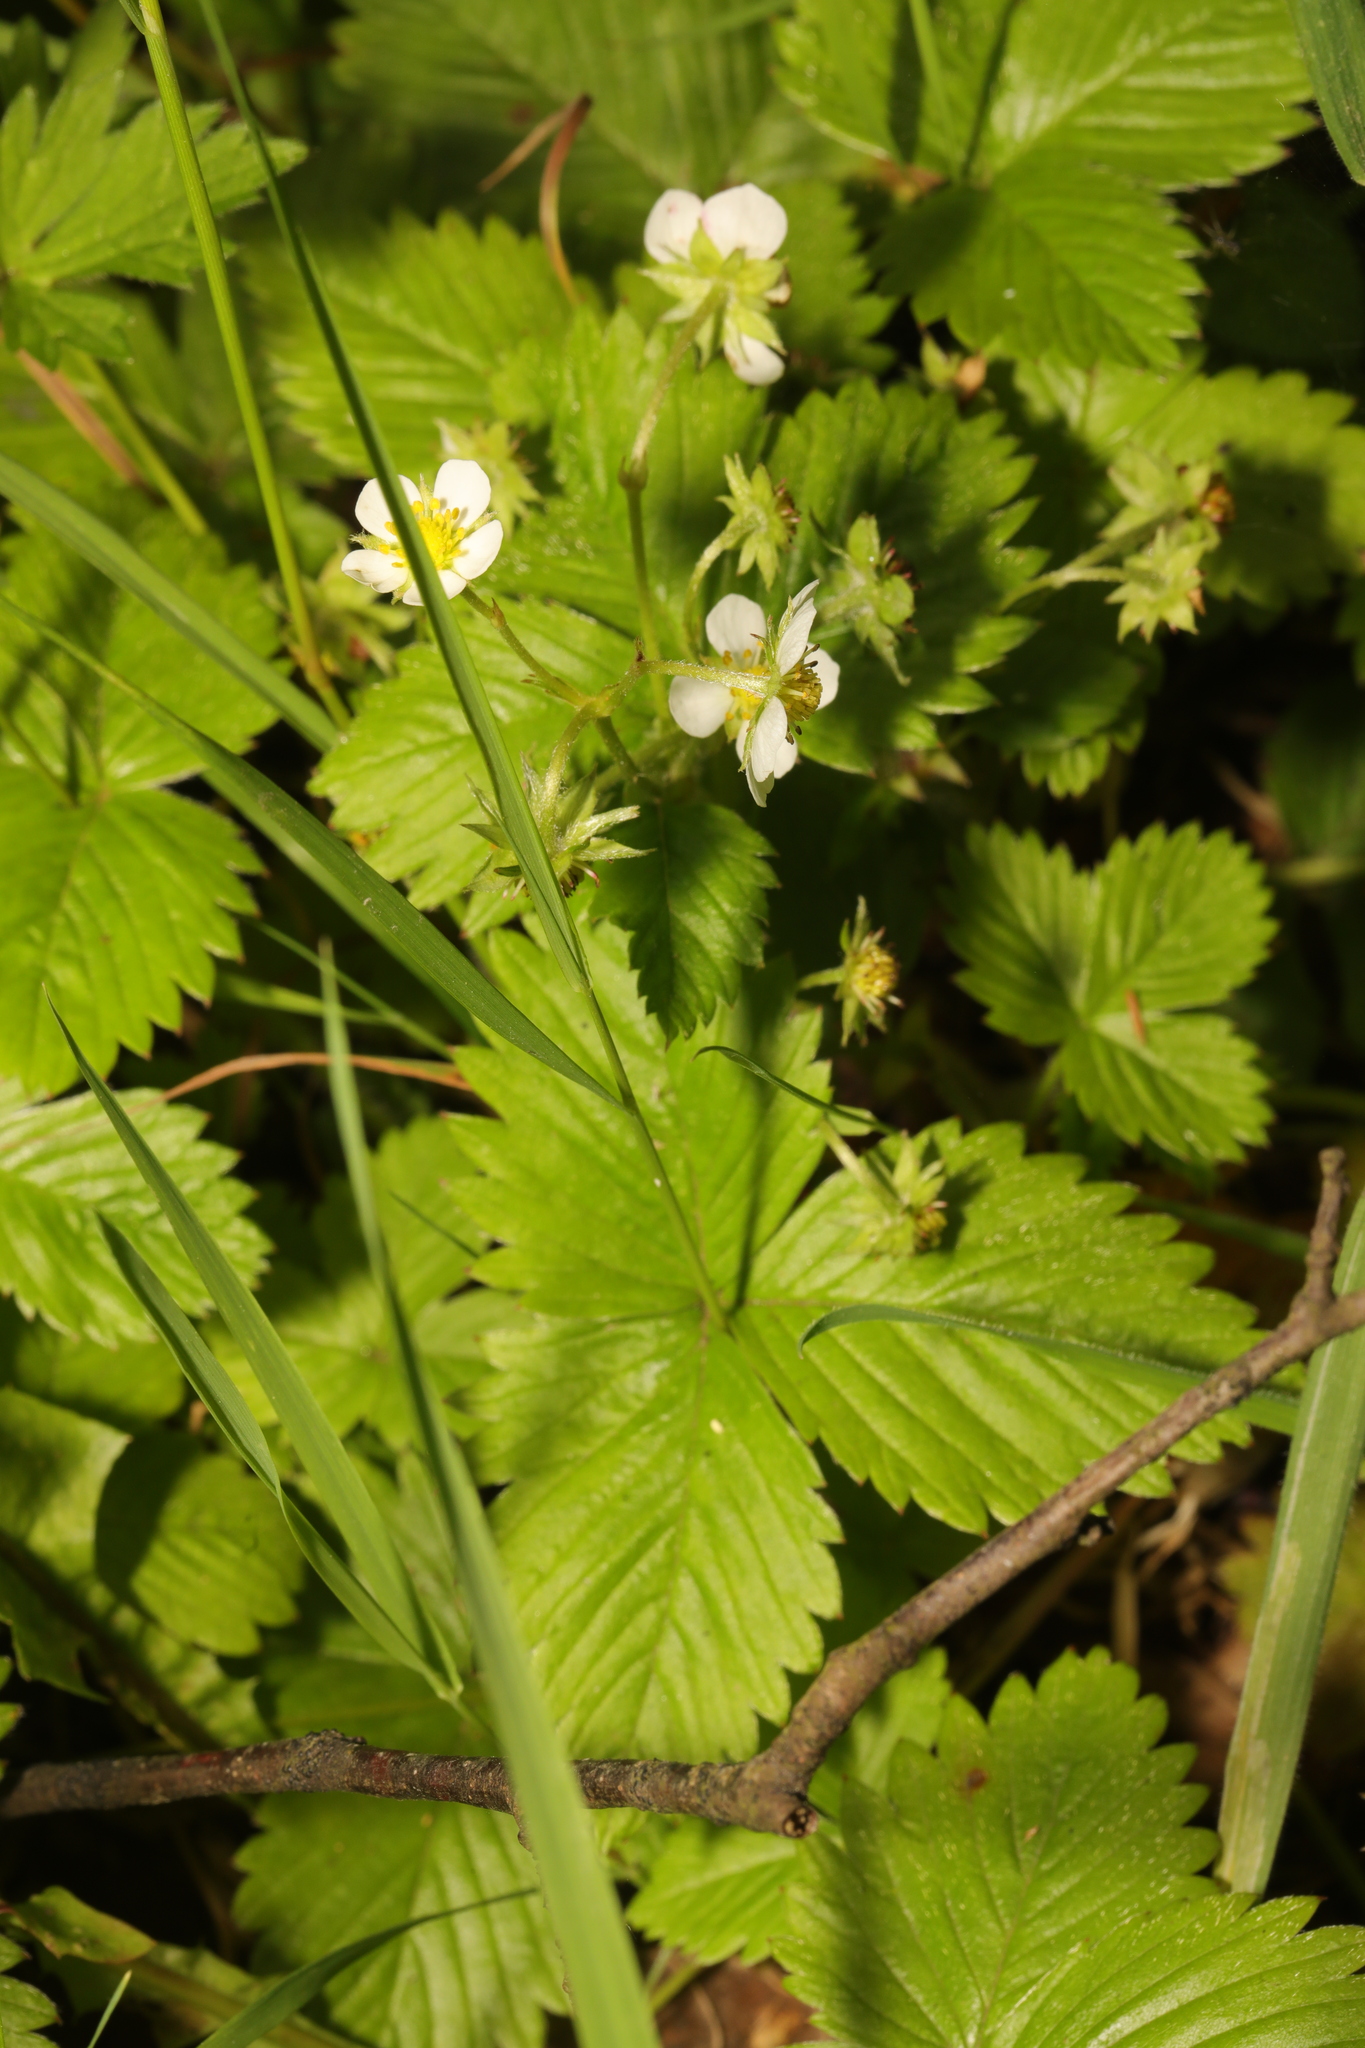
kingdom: Plantae
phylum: Tracheophyta
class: Magnoliopsida
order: Rosales
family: Rosaceae
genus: Fragaria
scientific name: Fragaria vesca
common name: Wild strawberry
